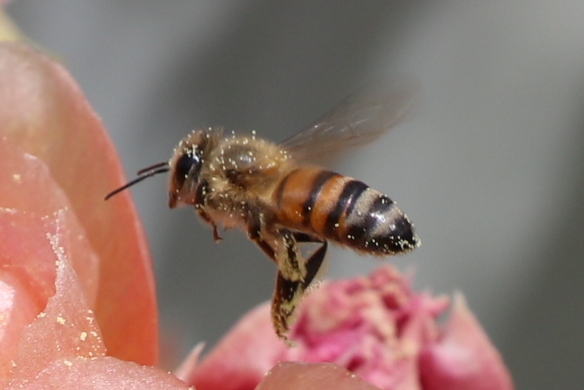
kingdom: Animalia
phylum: Arthropoda
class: Insecta
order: Hymenoptera
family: Apidae
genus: Apis
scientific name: Apis mellifera
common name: Honey bee
